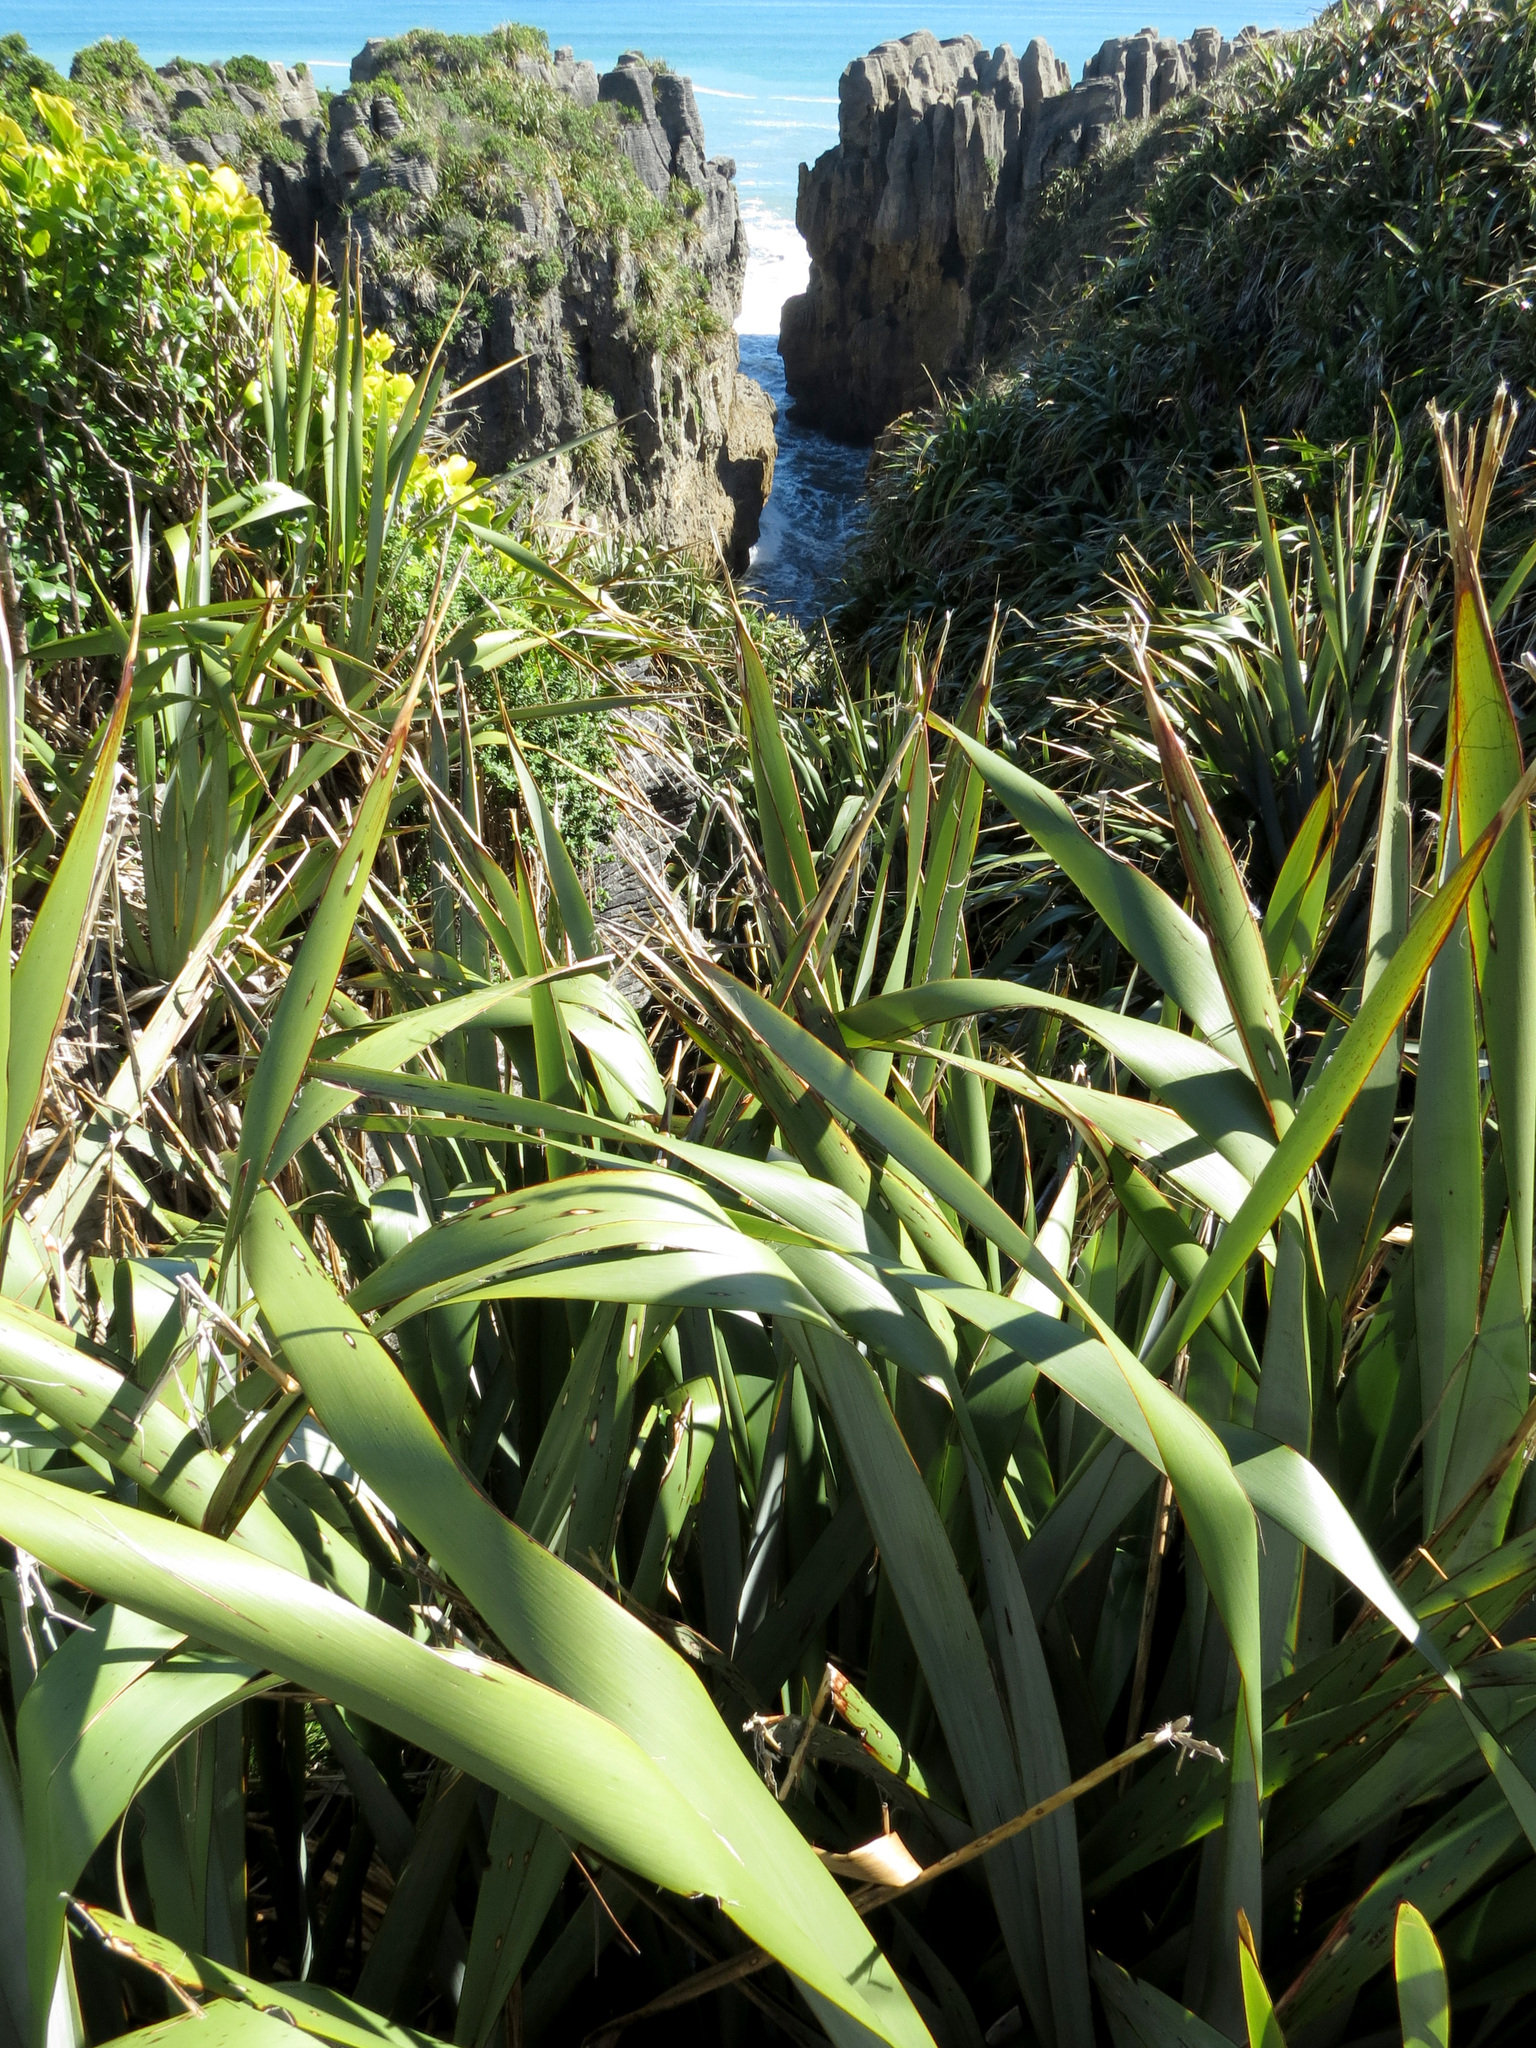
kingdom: Plantae
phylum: Tracheophyta
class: Liliopsida
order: Asparagales
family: Asphodelaceae
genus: Phormium
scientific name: Phormium tenax
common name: New zealand flax
